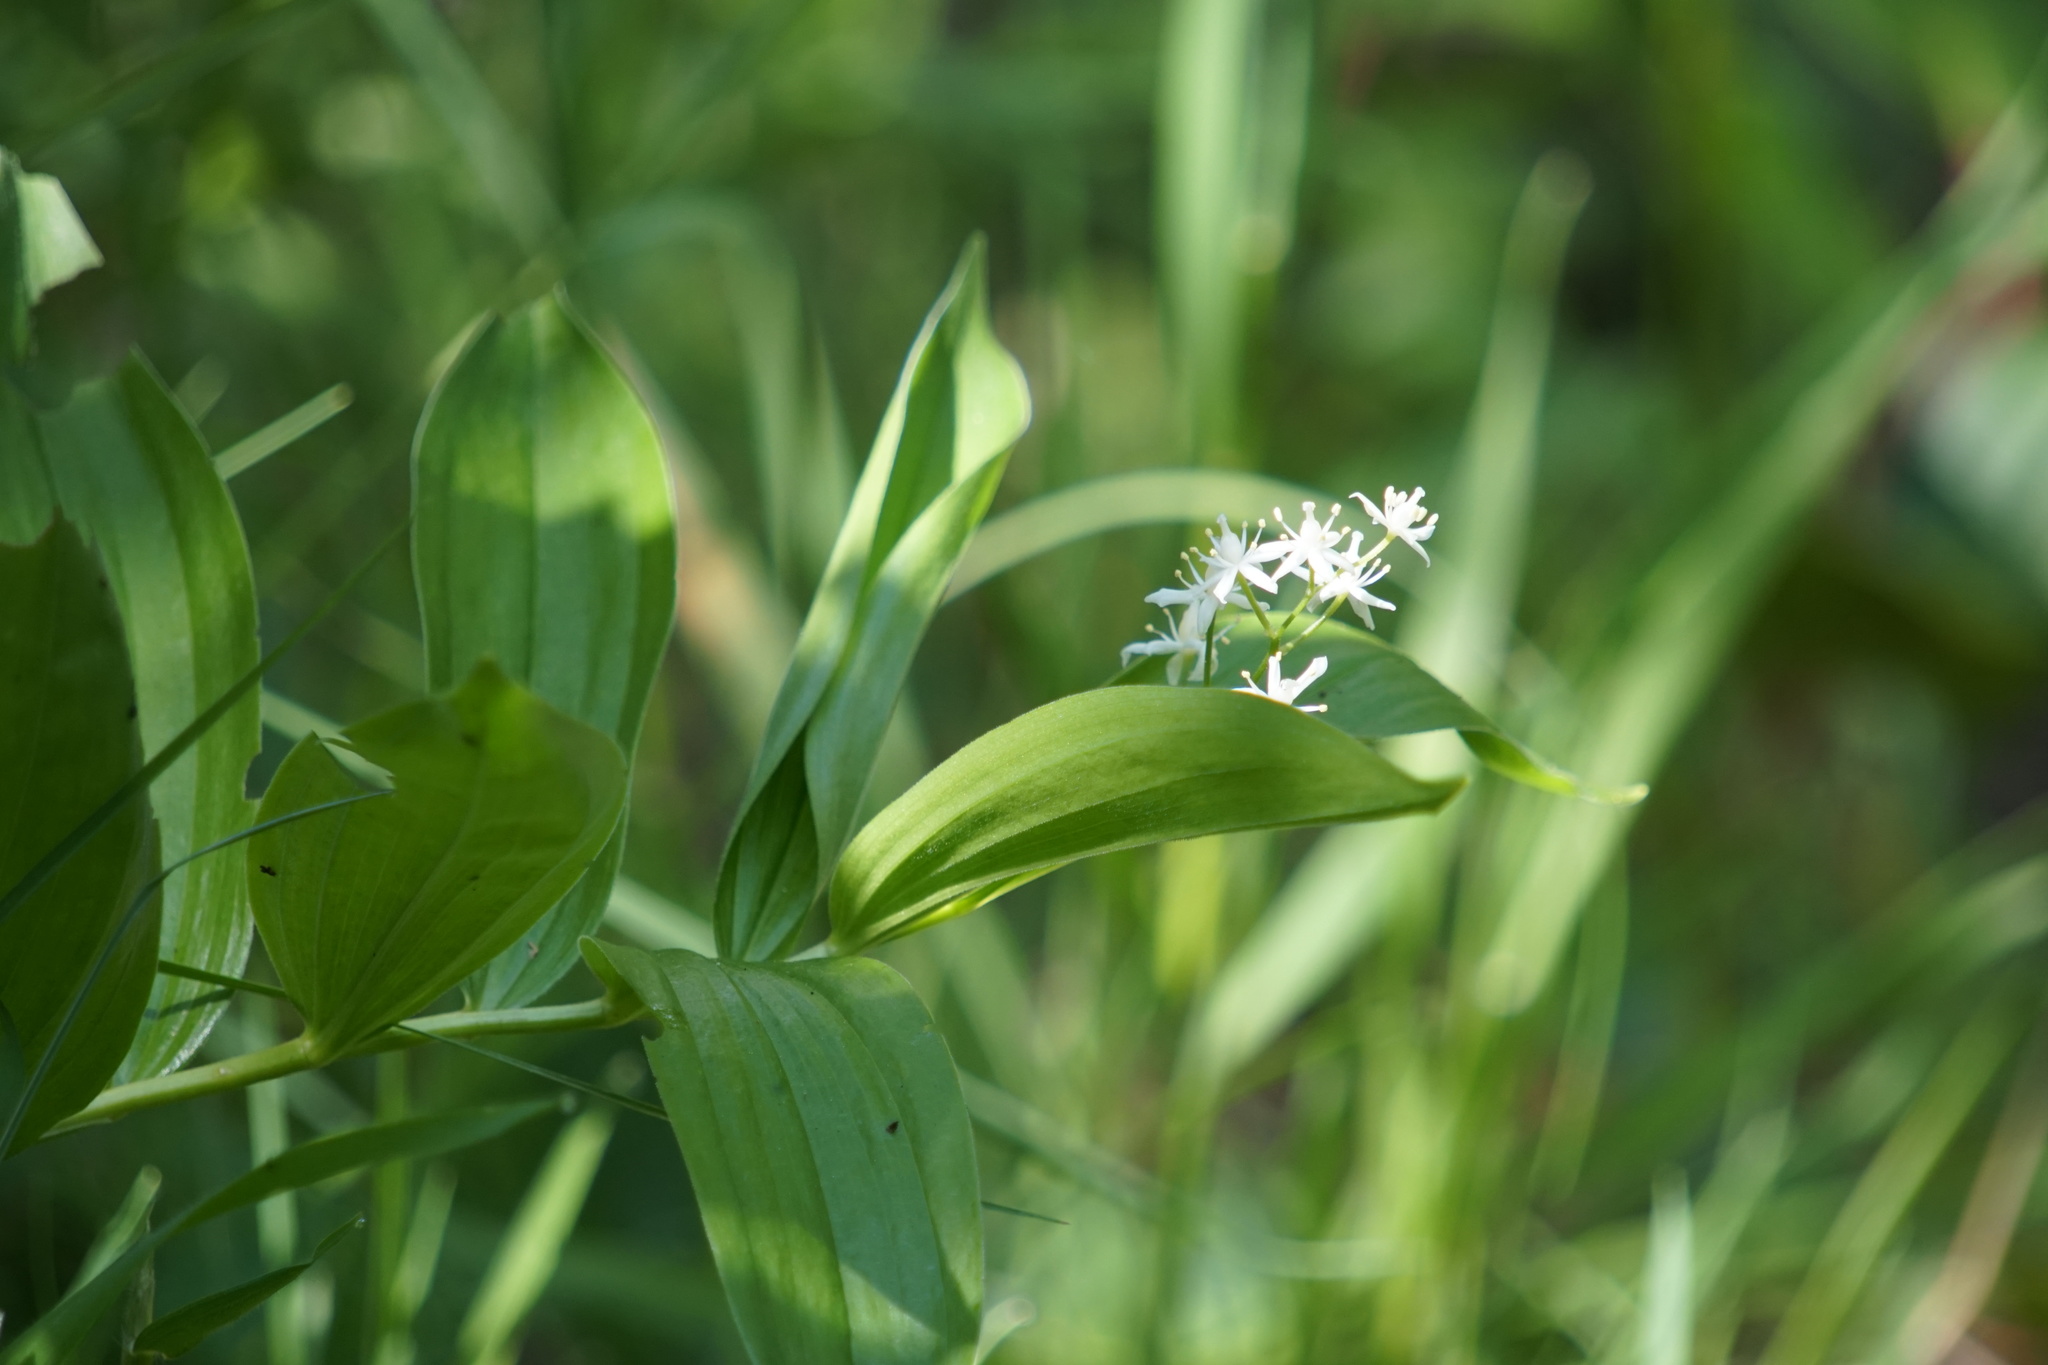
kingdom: Plantae
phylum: Tracheophyta
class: Liliopsida
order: Asparagales
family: Asparagaceae
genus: Maianthemum
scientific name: Maianthemum stellatum
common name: Little false solomon's seal
